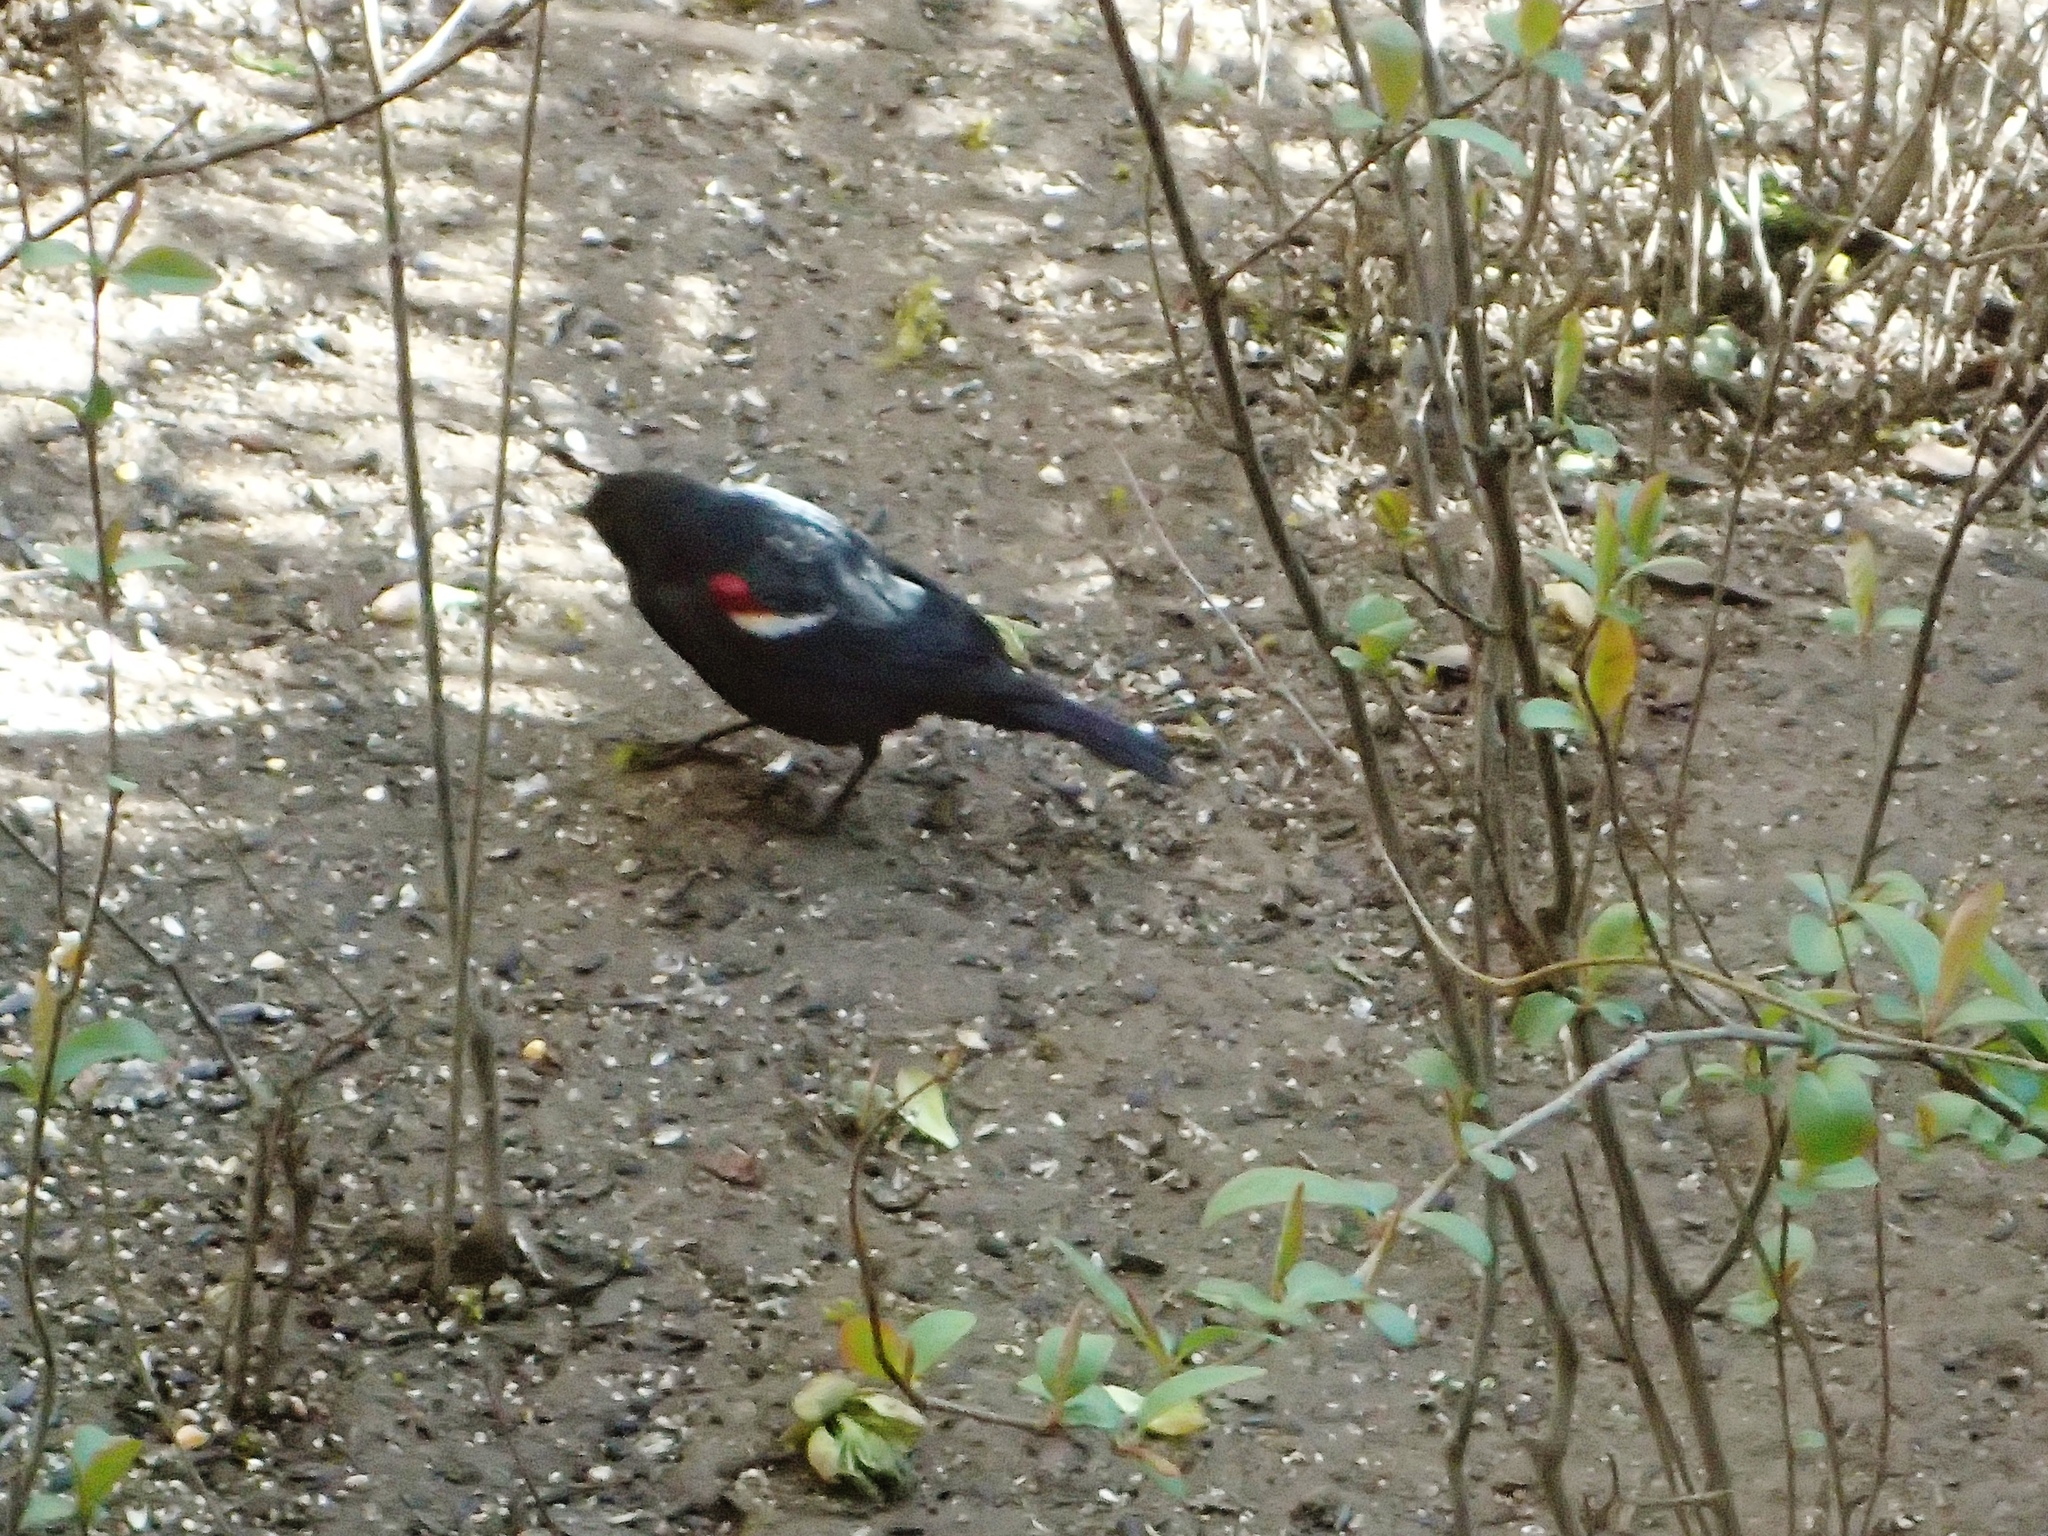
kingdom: Animalia
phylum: Chordata
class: Aves
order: Passeriformes
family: Icteridae
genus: Agelaius
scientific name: Agelaius tricolor
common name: Tricolored blackbird
